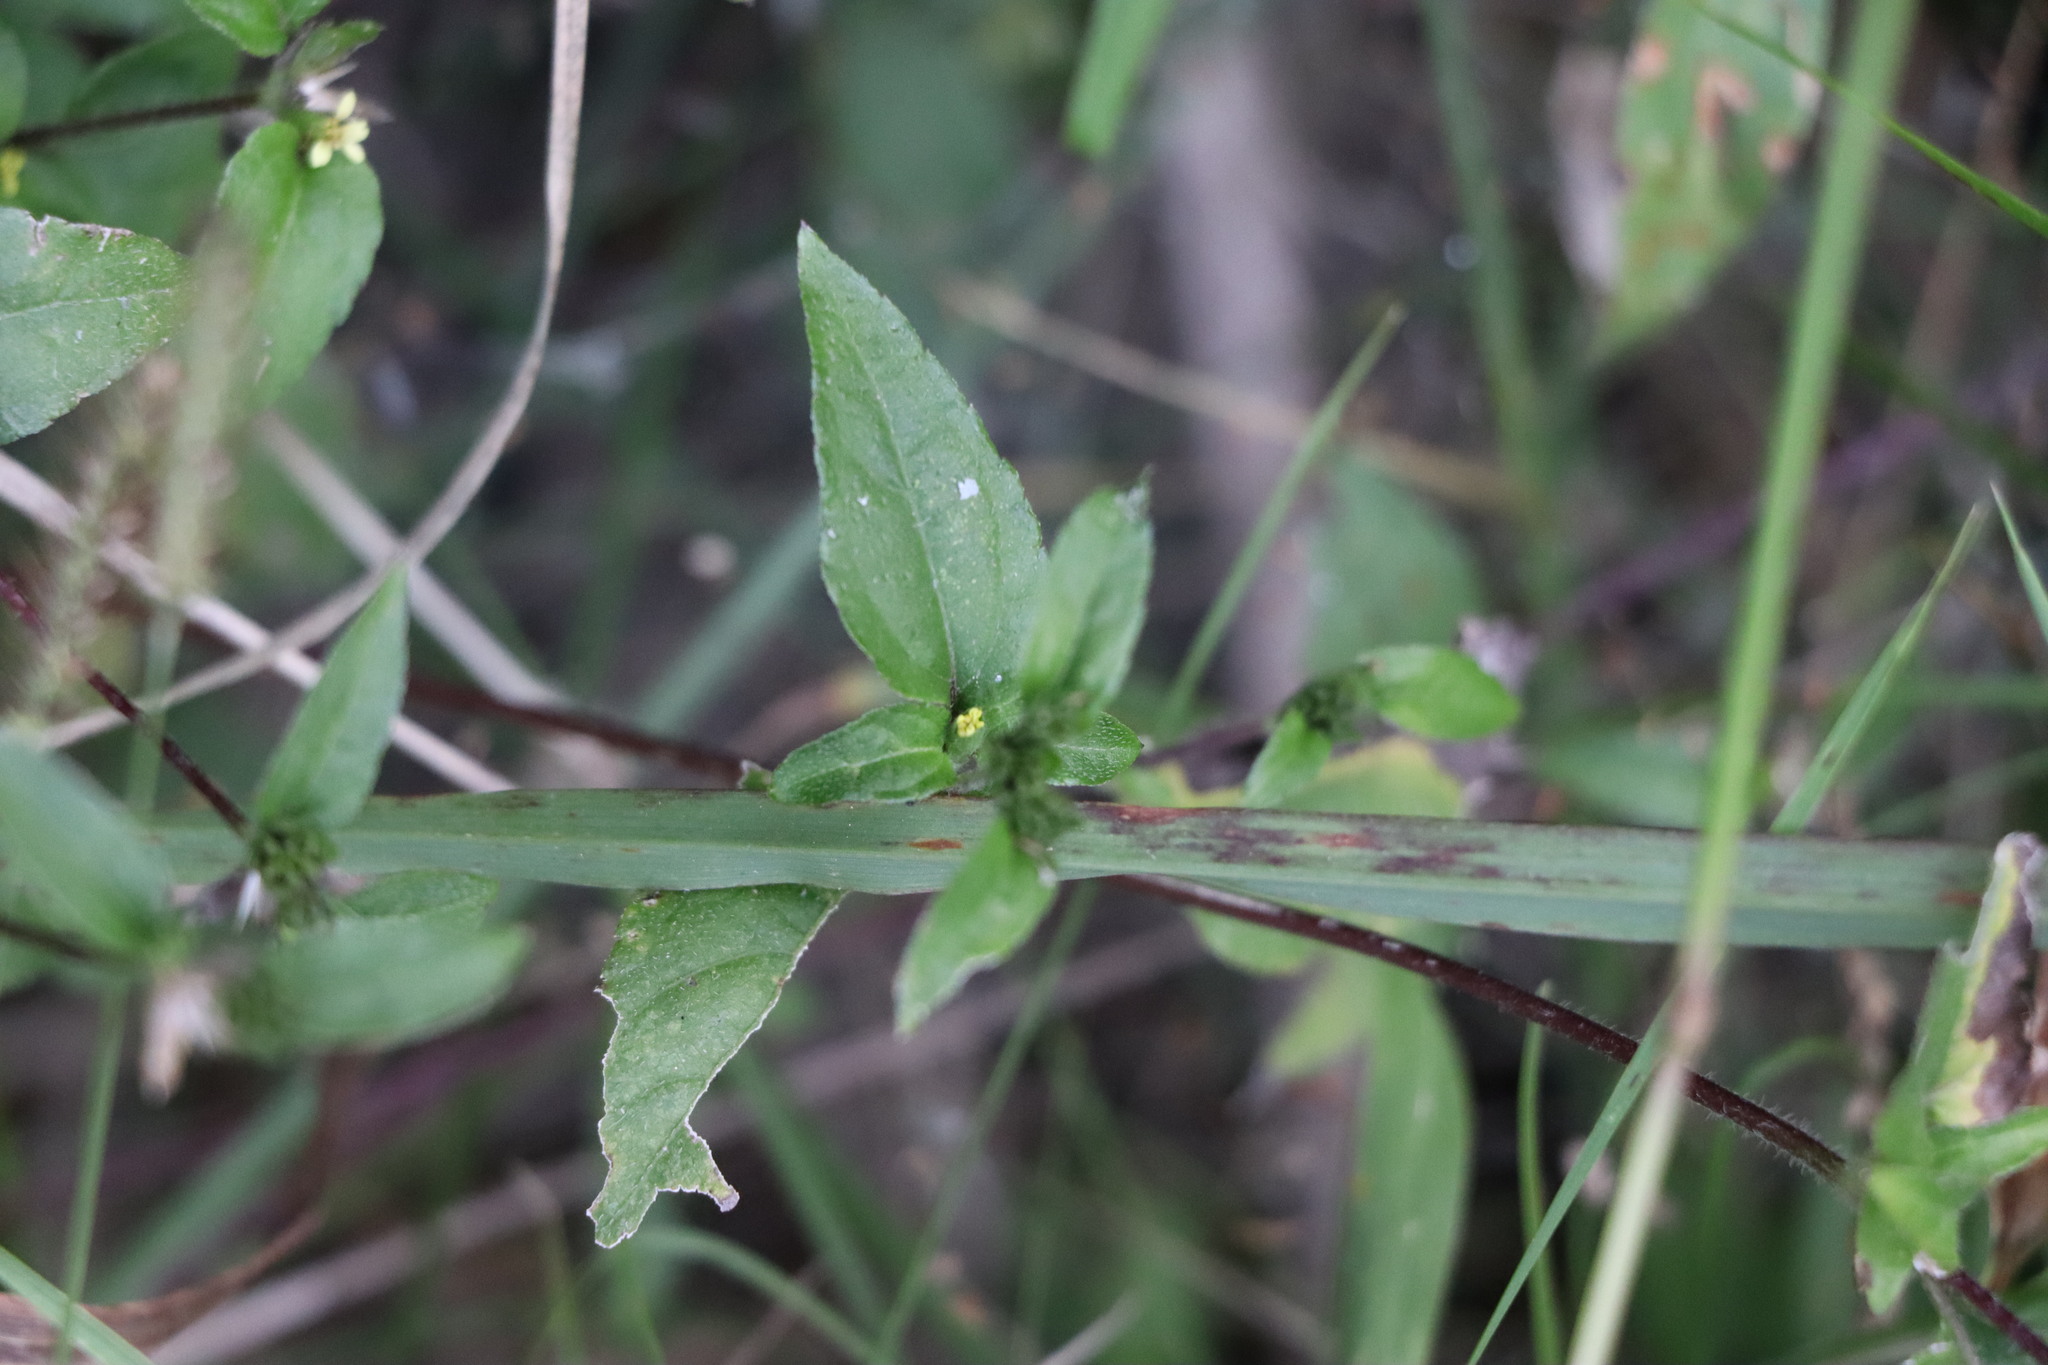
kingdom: Plantae
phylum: Tracheophyta
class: Magnoliopsida
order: Asterales
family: Asteraceae
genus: Calyptocarpus
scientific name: Calyptocarpus brasiliensis
